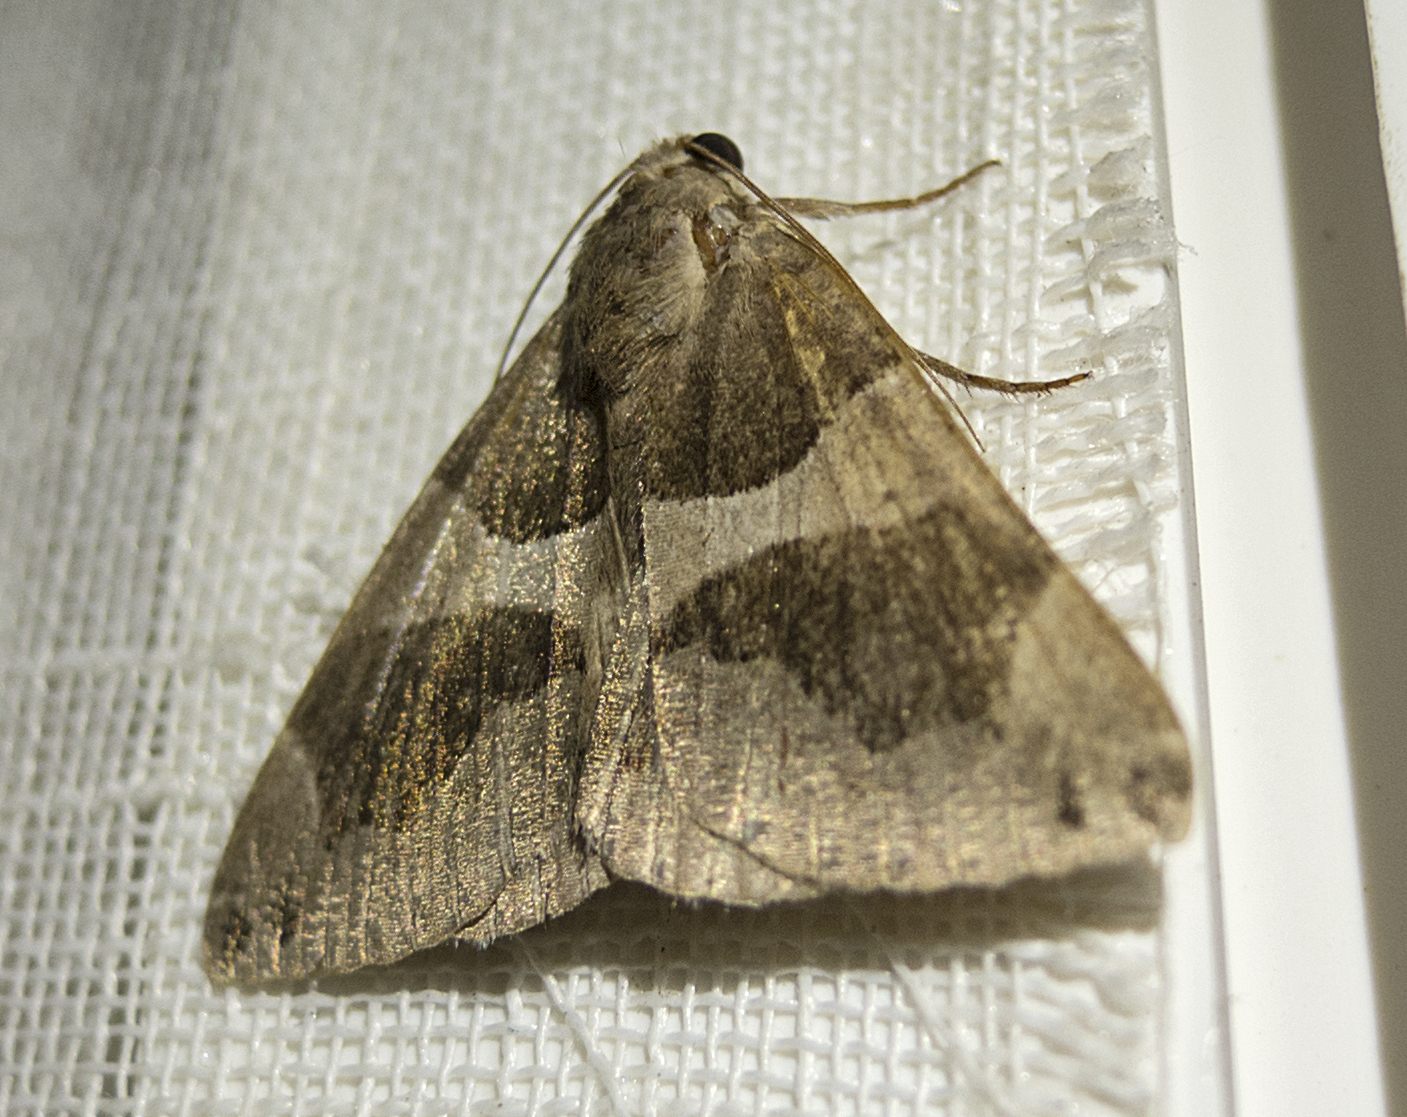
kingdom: Animalia
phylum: Arthropoda
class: Insecta
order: Lepidoptera
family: Erebidae
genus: Dysgonia
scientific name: Dysgonia algira
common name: Passenger
